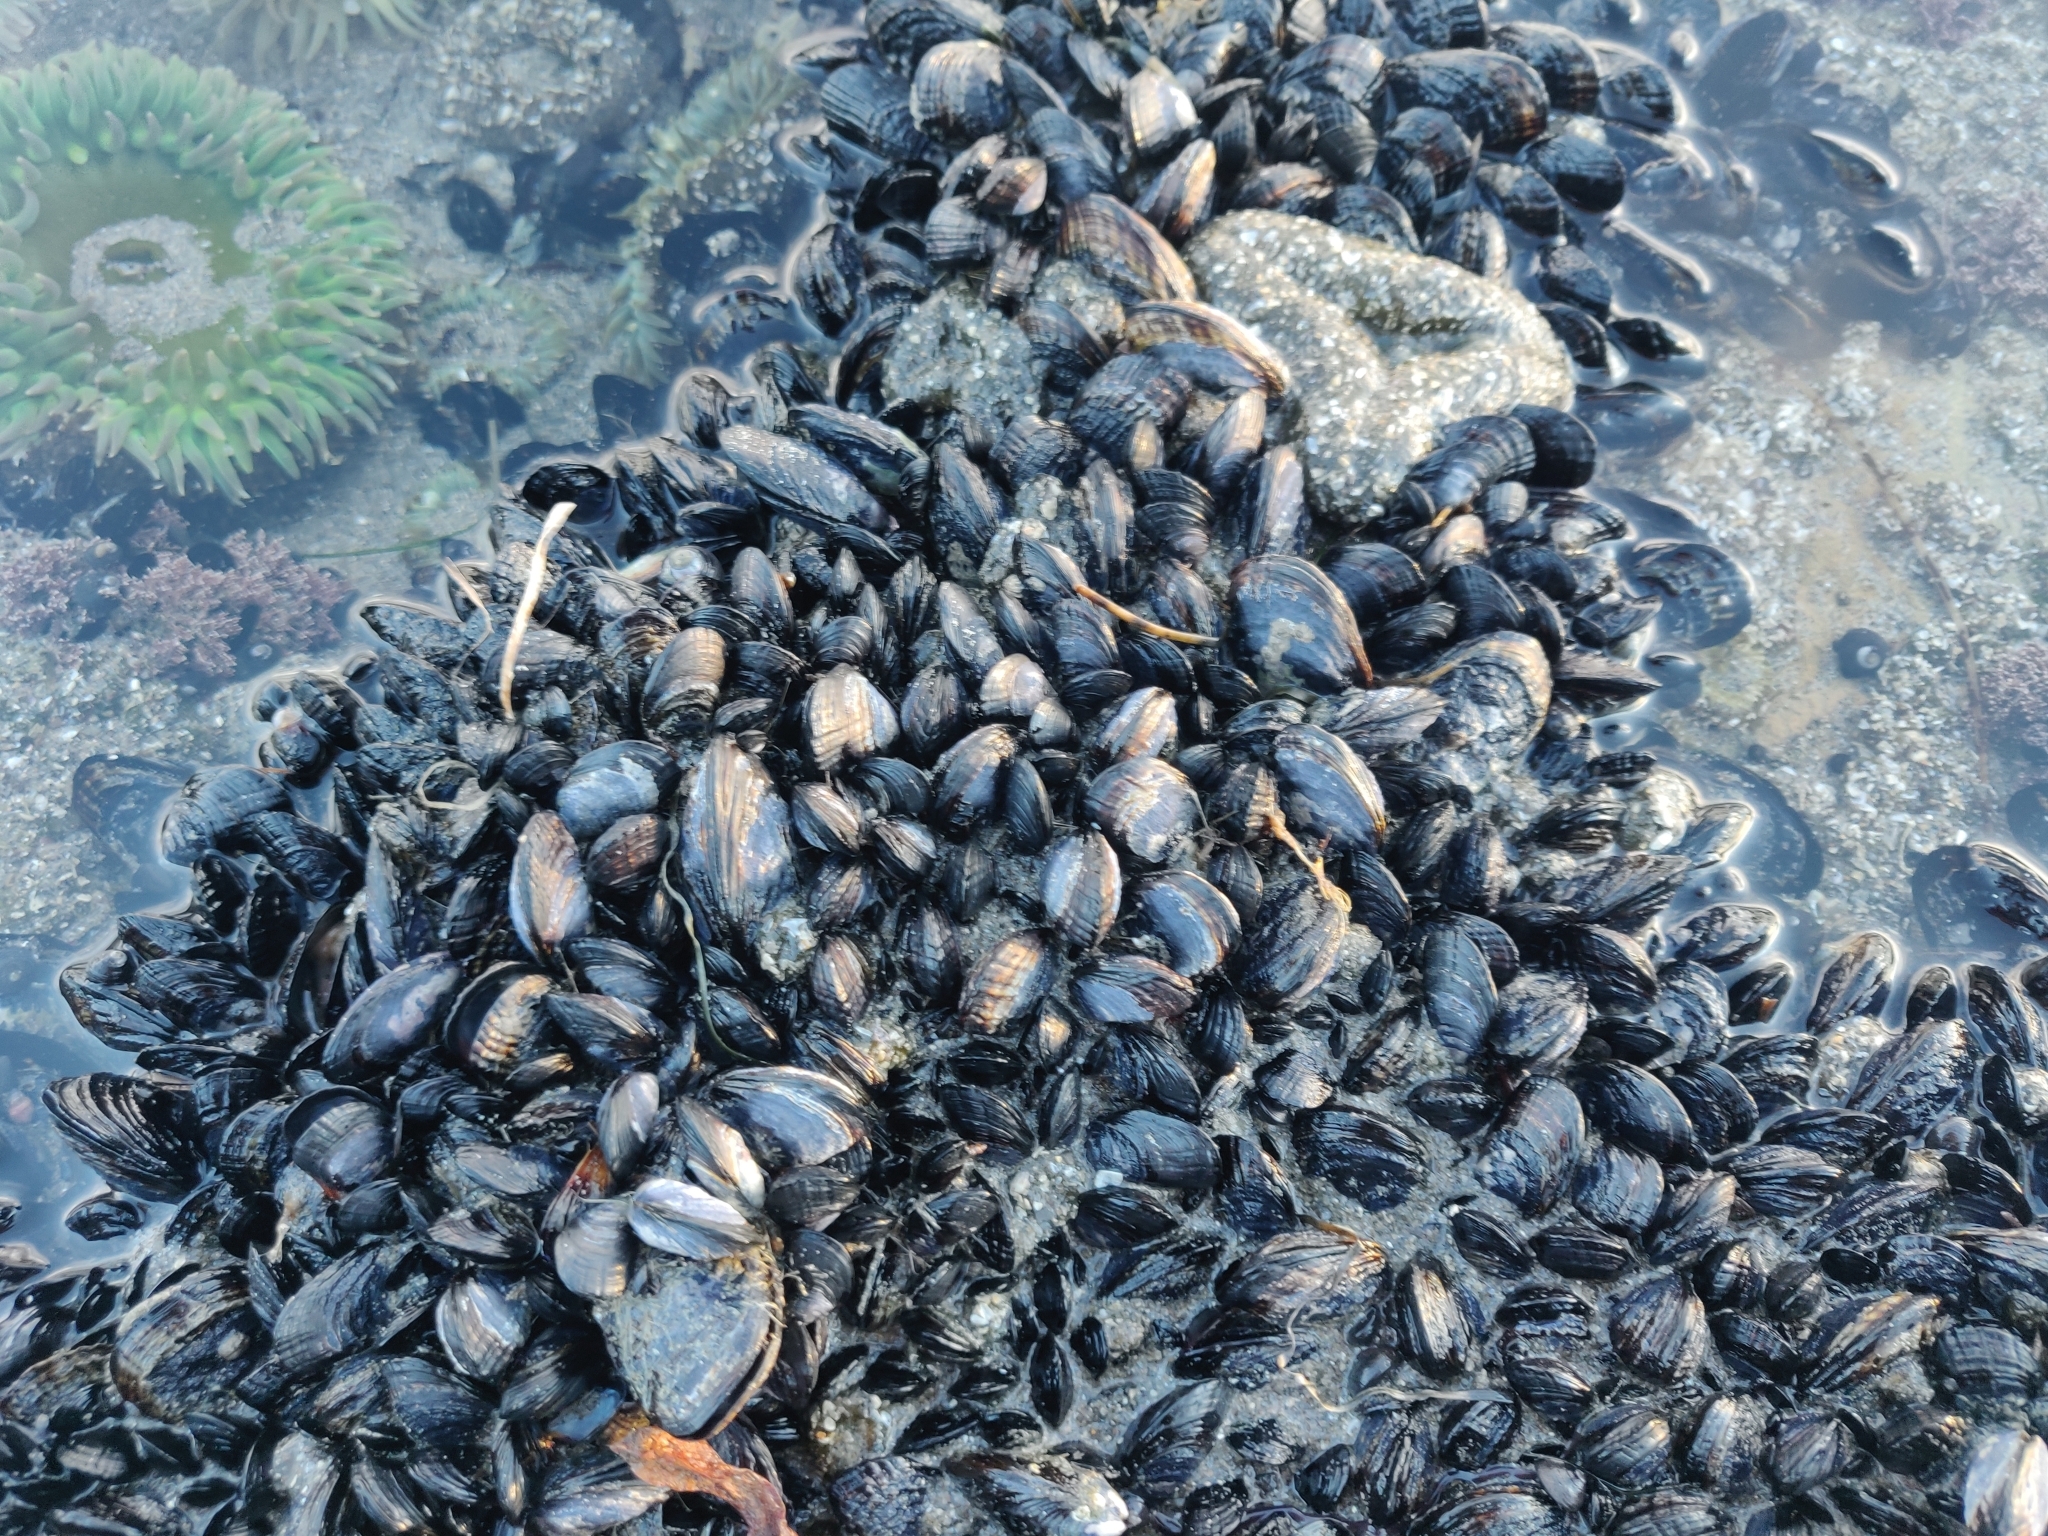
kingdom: Animalia
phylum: Mollusca
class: Bivalvia
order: Mytilida
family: Mytilidae
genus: Mytilus
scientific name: Mytilus californianus
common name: California mussel
